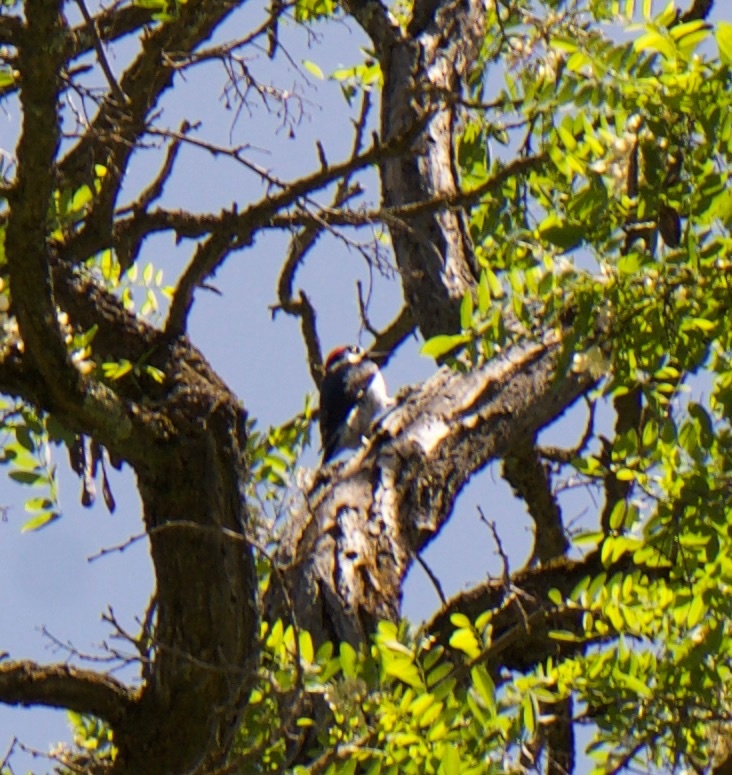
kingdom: Animalia
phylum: Chordata
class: Aves
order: Piciformes
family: Picidae
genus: Melanerpes
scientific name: Melanerpes formicivorus
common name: Acorn woodpecker
